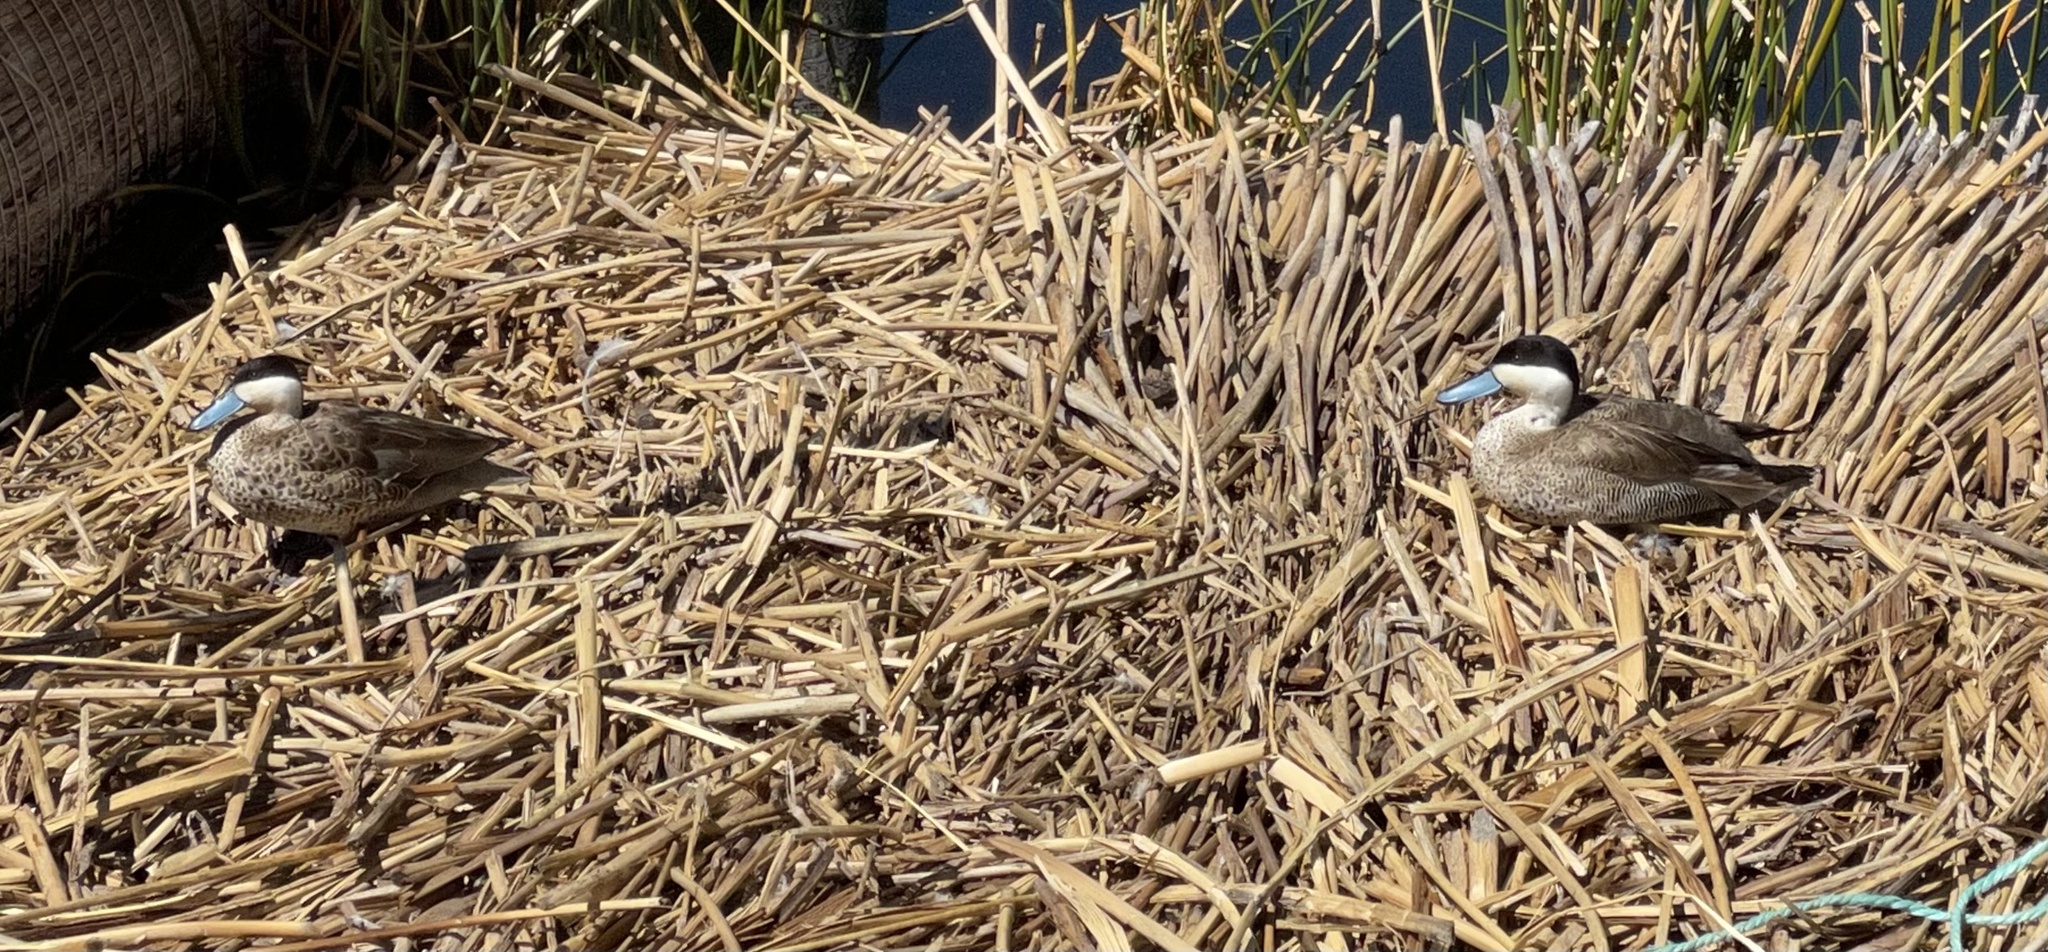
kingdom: Animalia
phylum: Chordata
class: Aves
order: Anseriformes
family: Anatidae
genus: Spatula
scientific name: Spatula puna
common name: Puna teal
